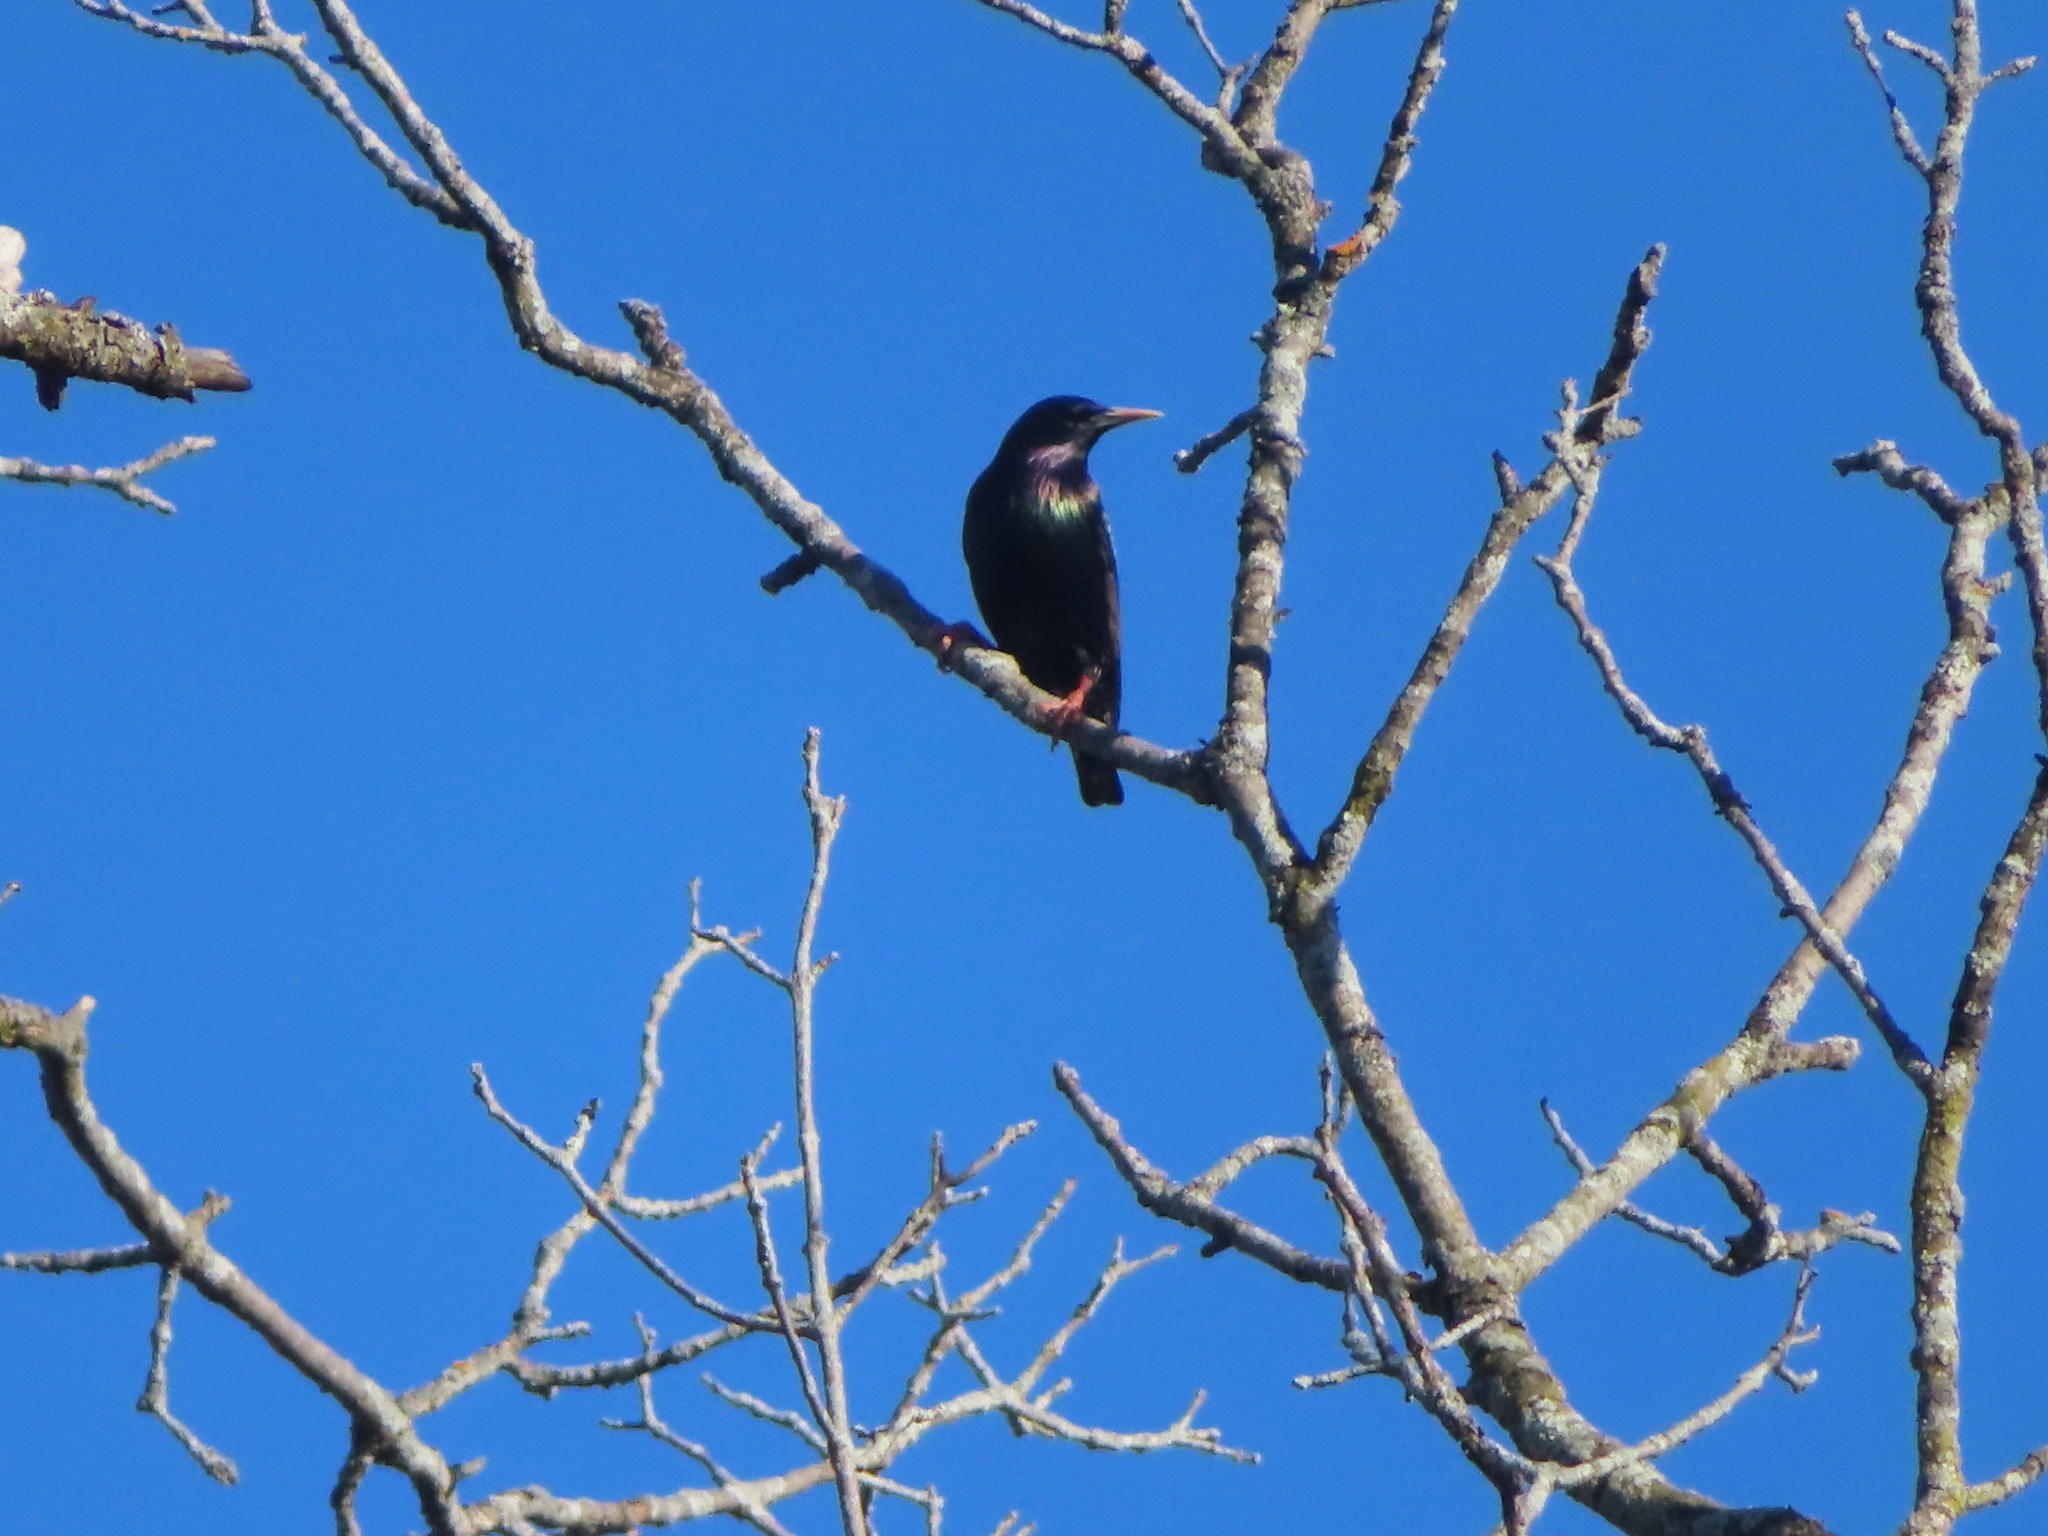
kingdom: Animalia
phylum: Chordata
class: Aves
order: Passeriformes
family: Sturnidae
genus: Sturnus
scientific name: Sturnus vulgaris
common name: Common starling
